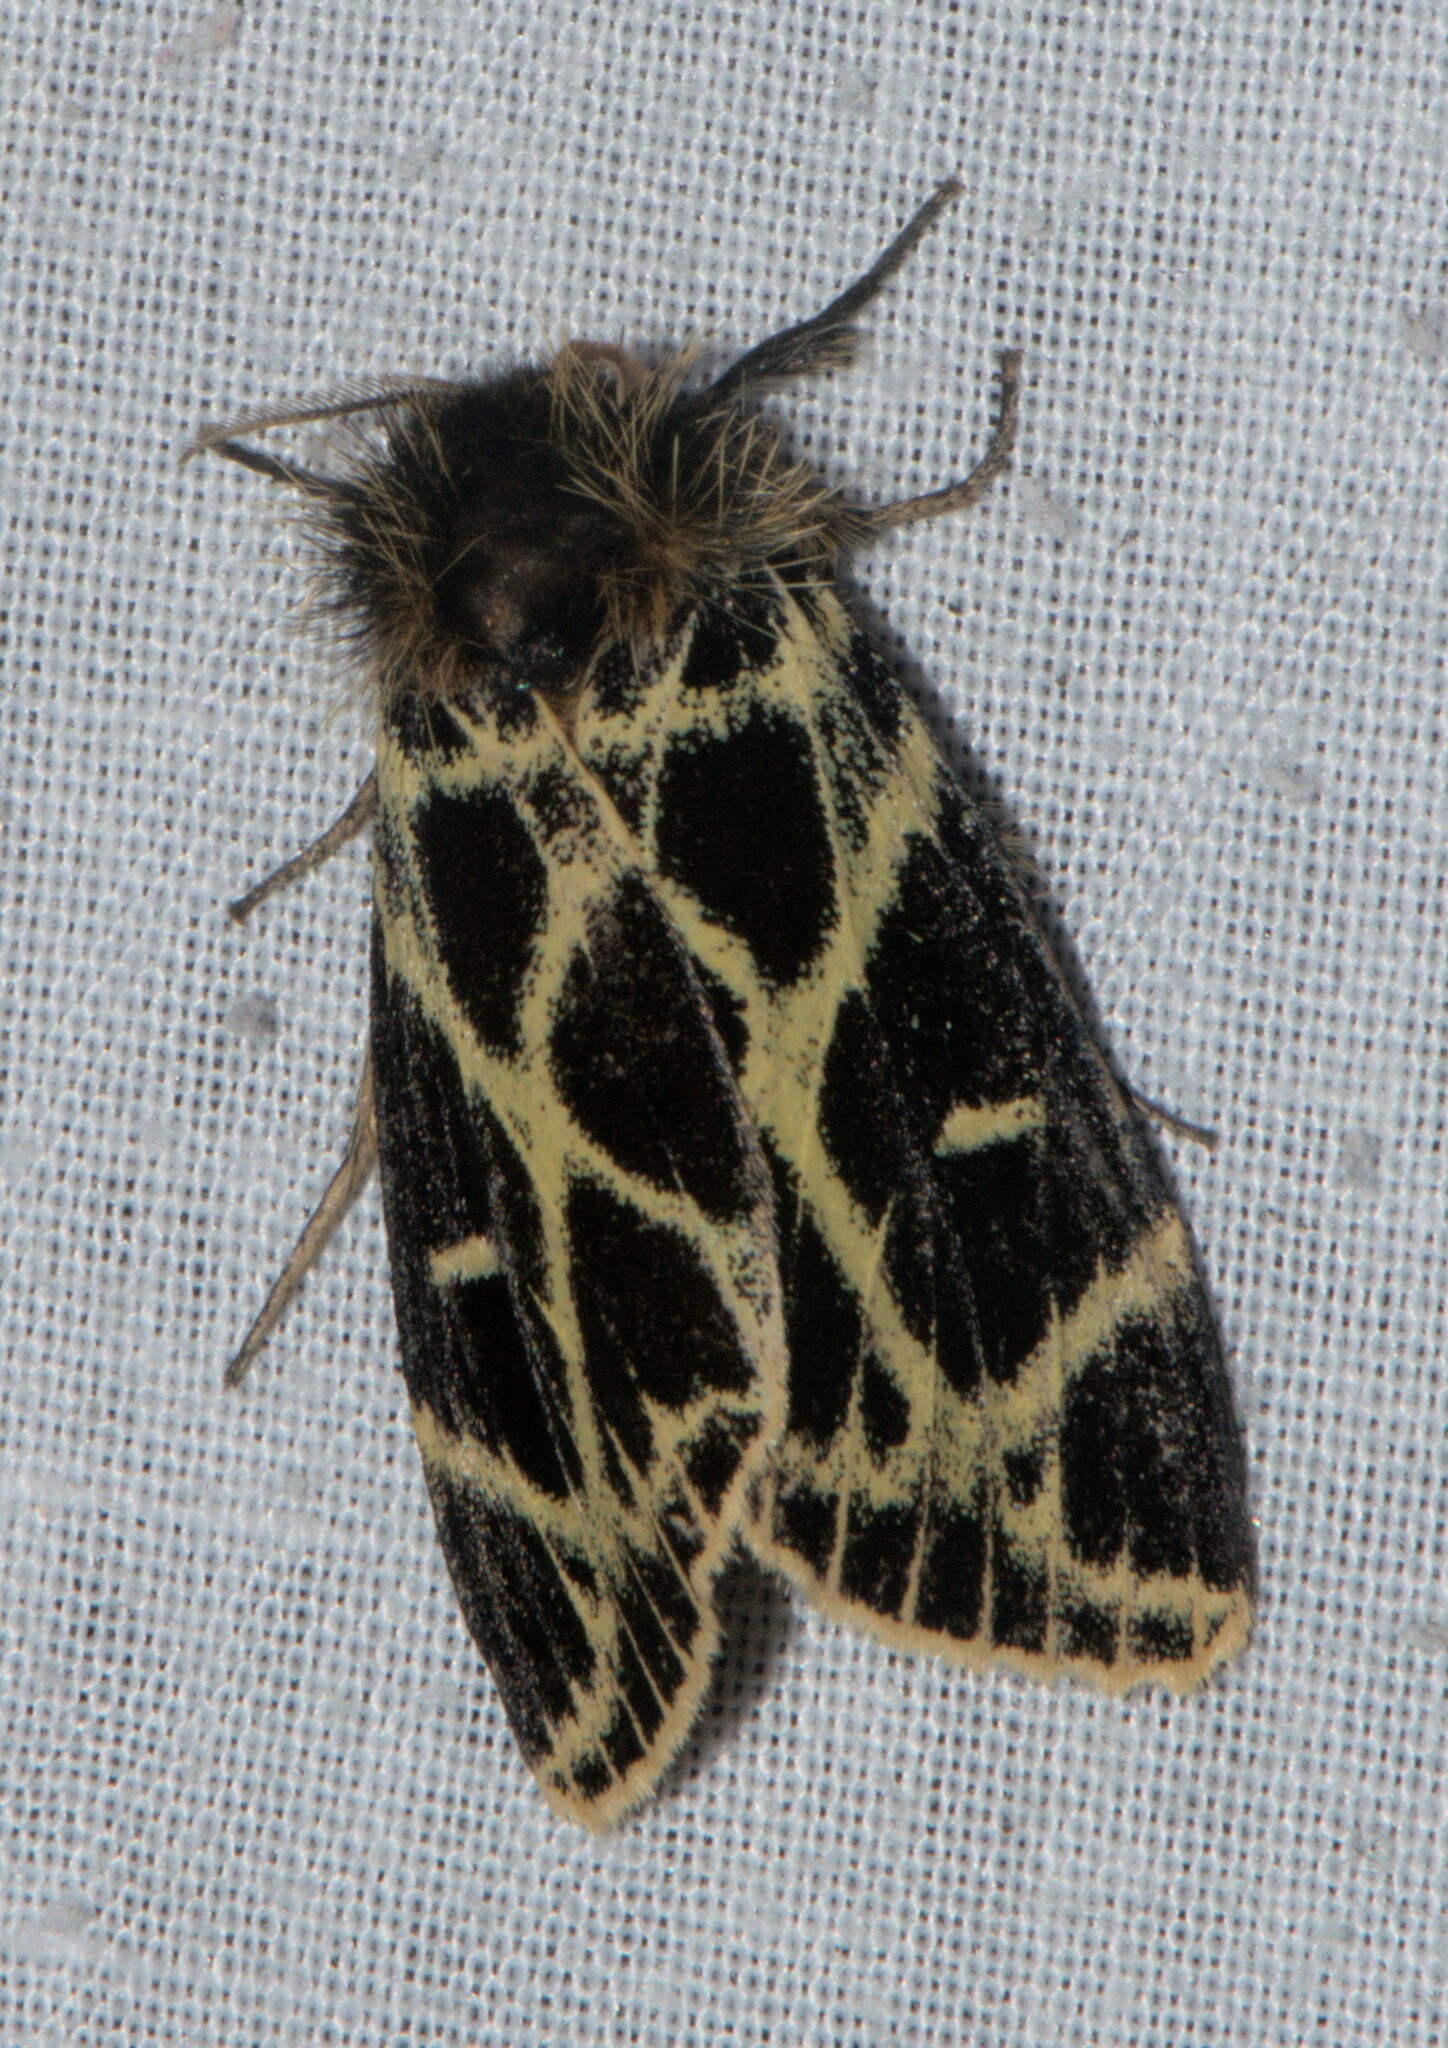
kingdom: Animalia
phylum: Arthropoda
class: Insecta
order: Lepidoptera
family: Erebidae
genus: Pida
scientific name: Pida
